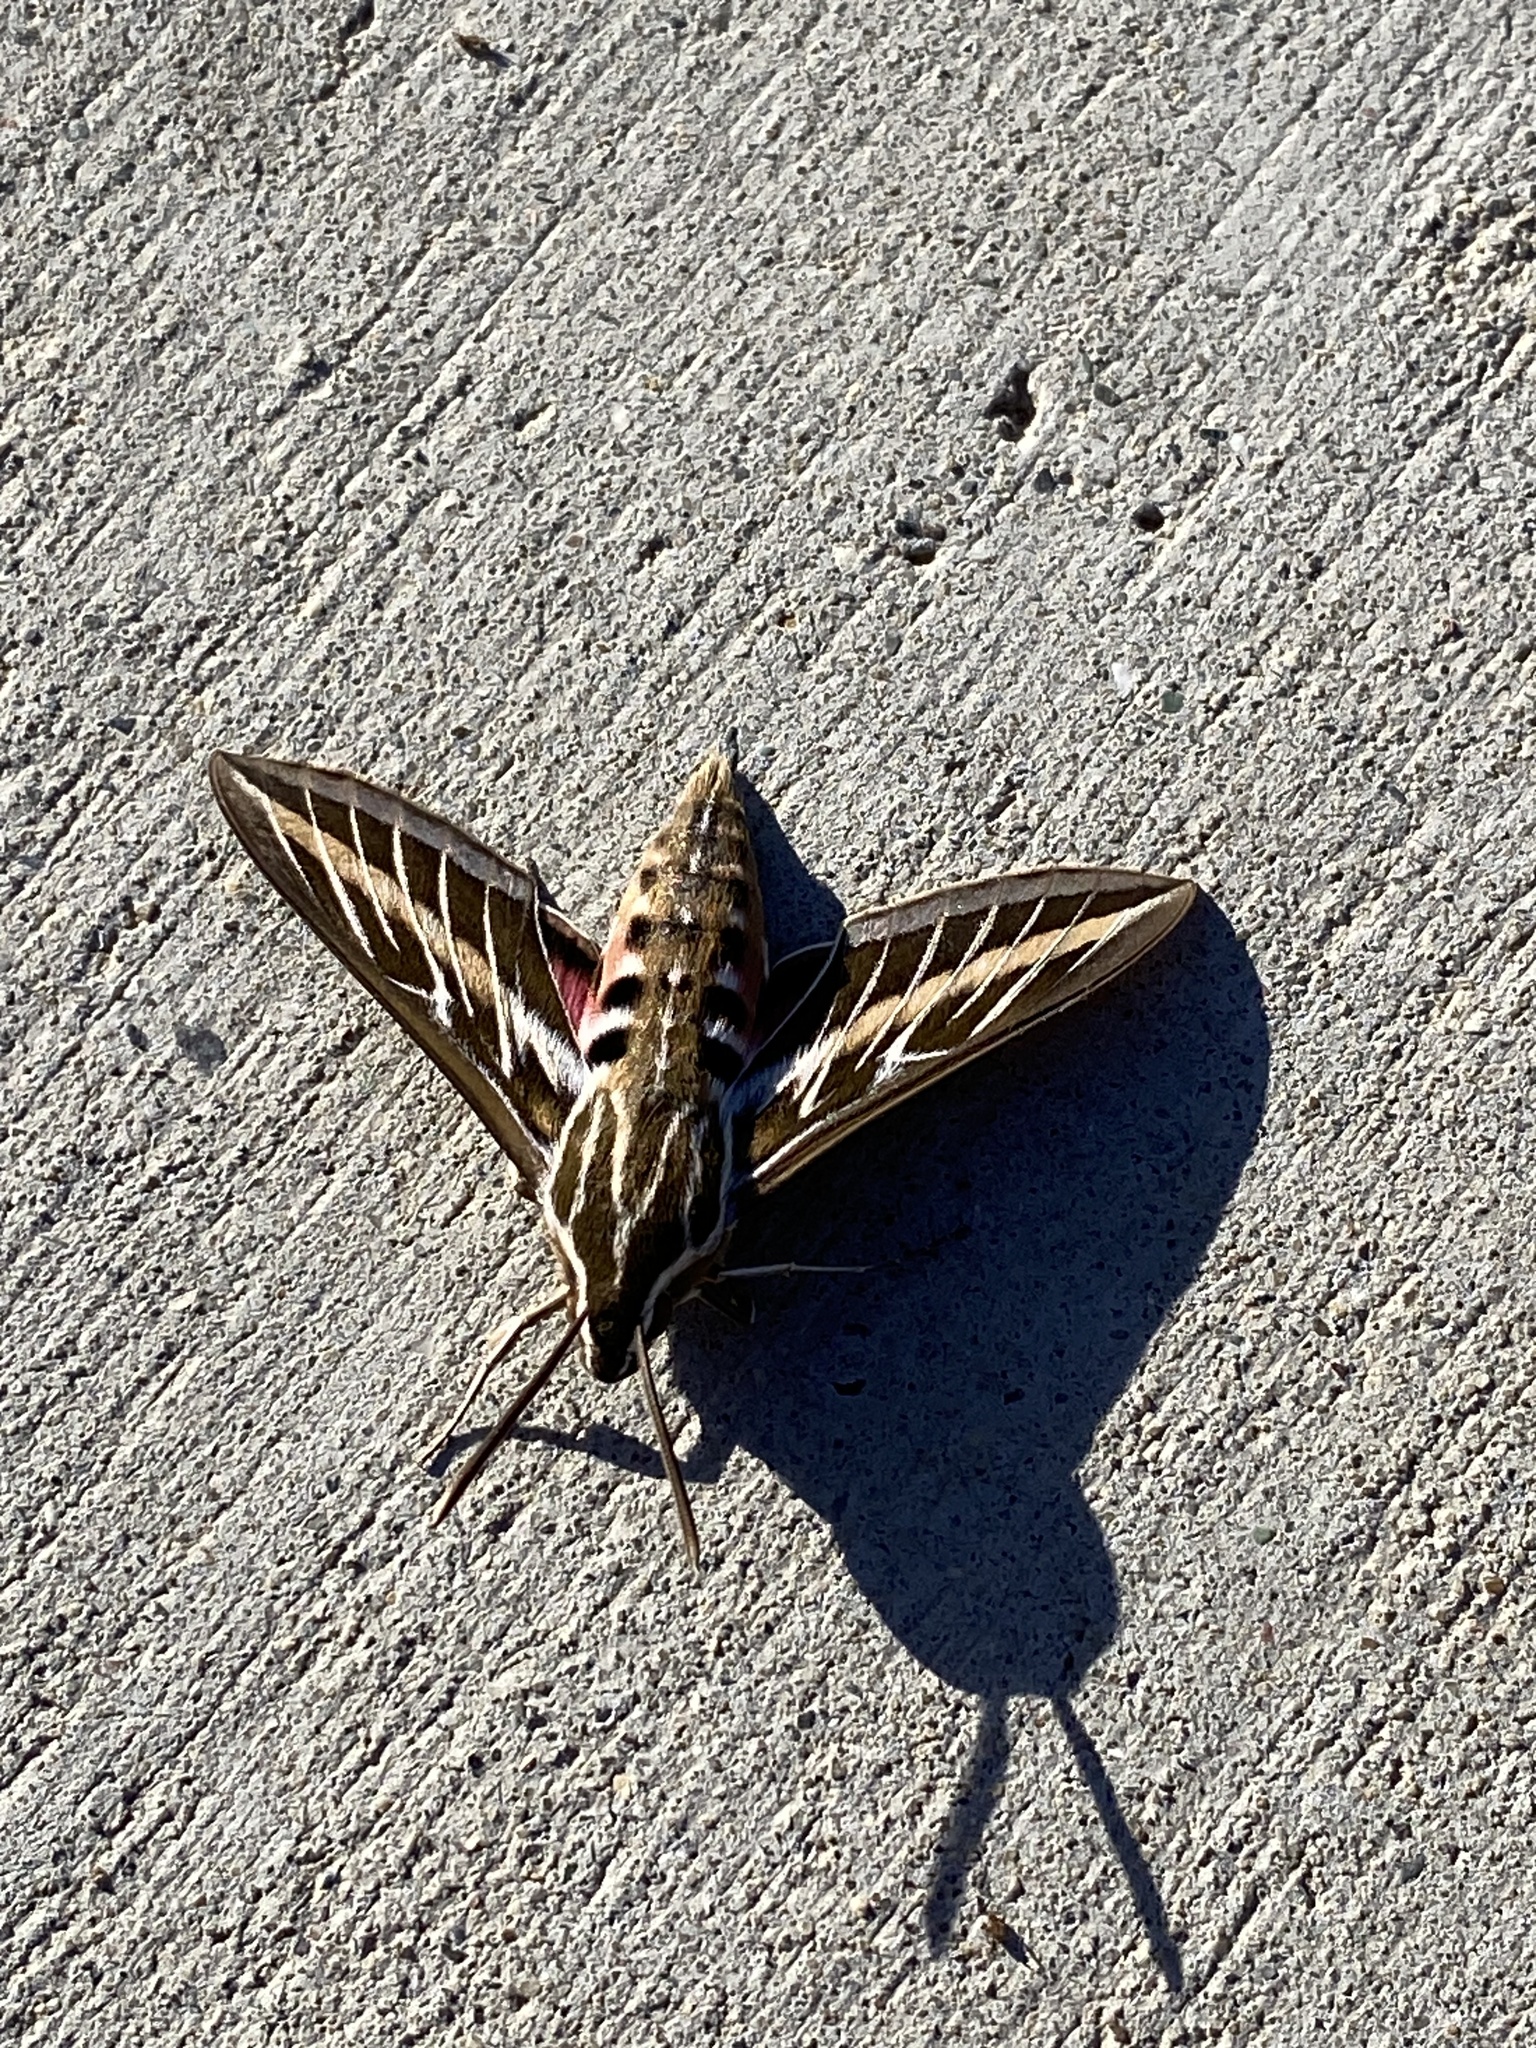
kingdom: Animalia
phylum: Arthropoda
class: Insecta
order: Lepidoptera
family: Sphingidae
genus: Hyles
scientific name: Hyles lineata
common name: White-lined sphinx
